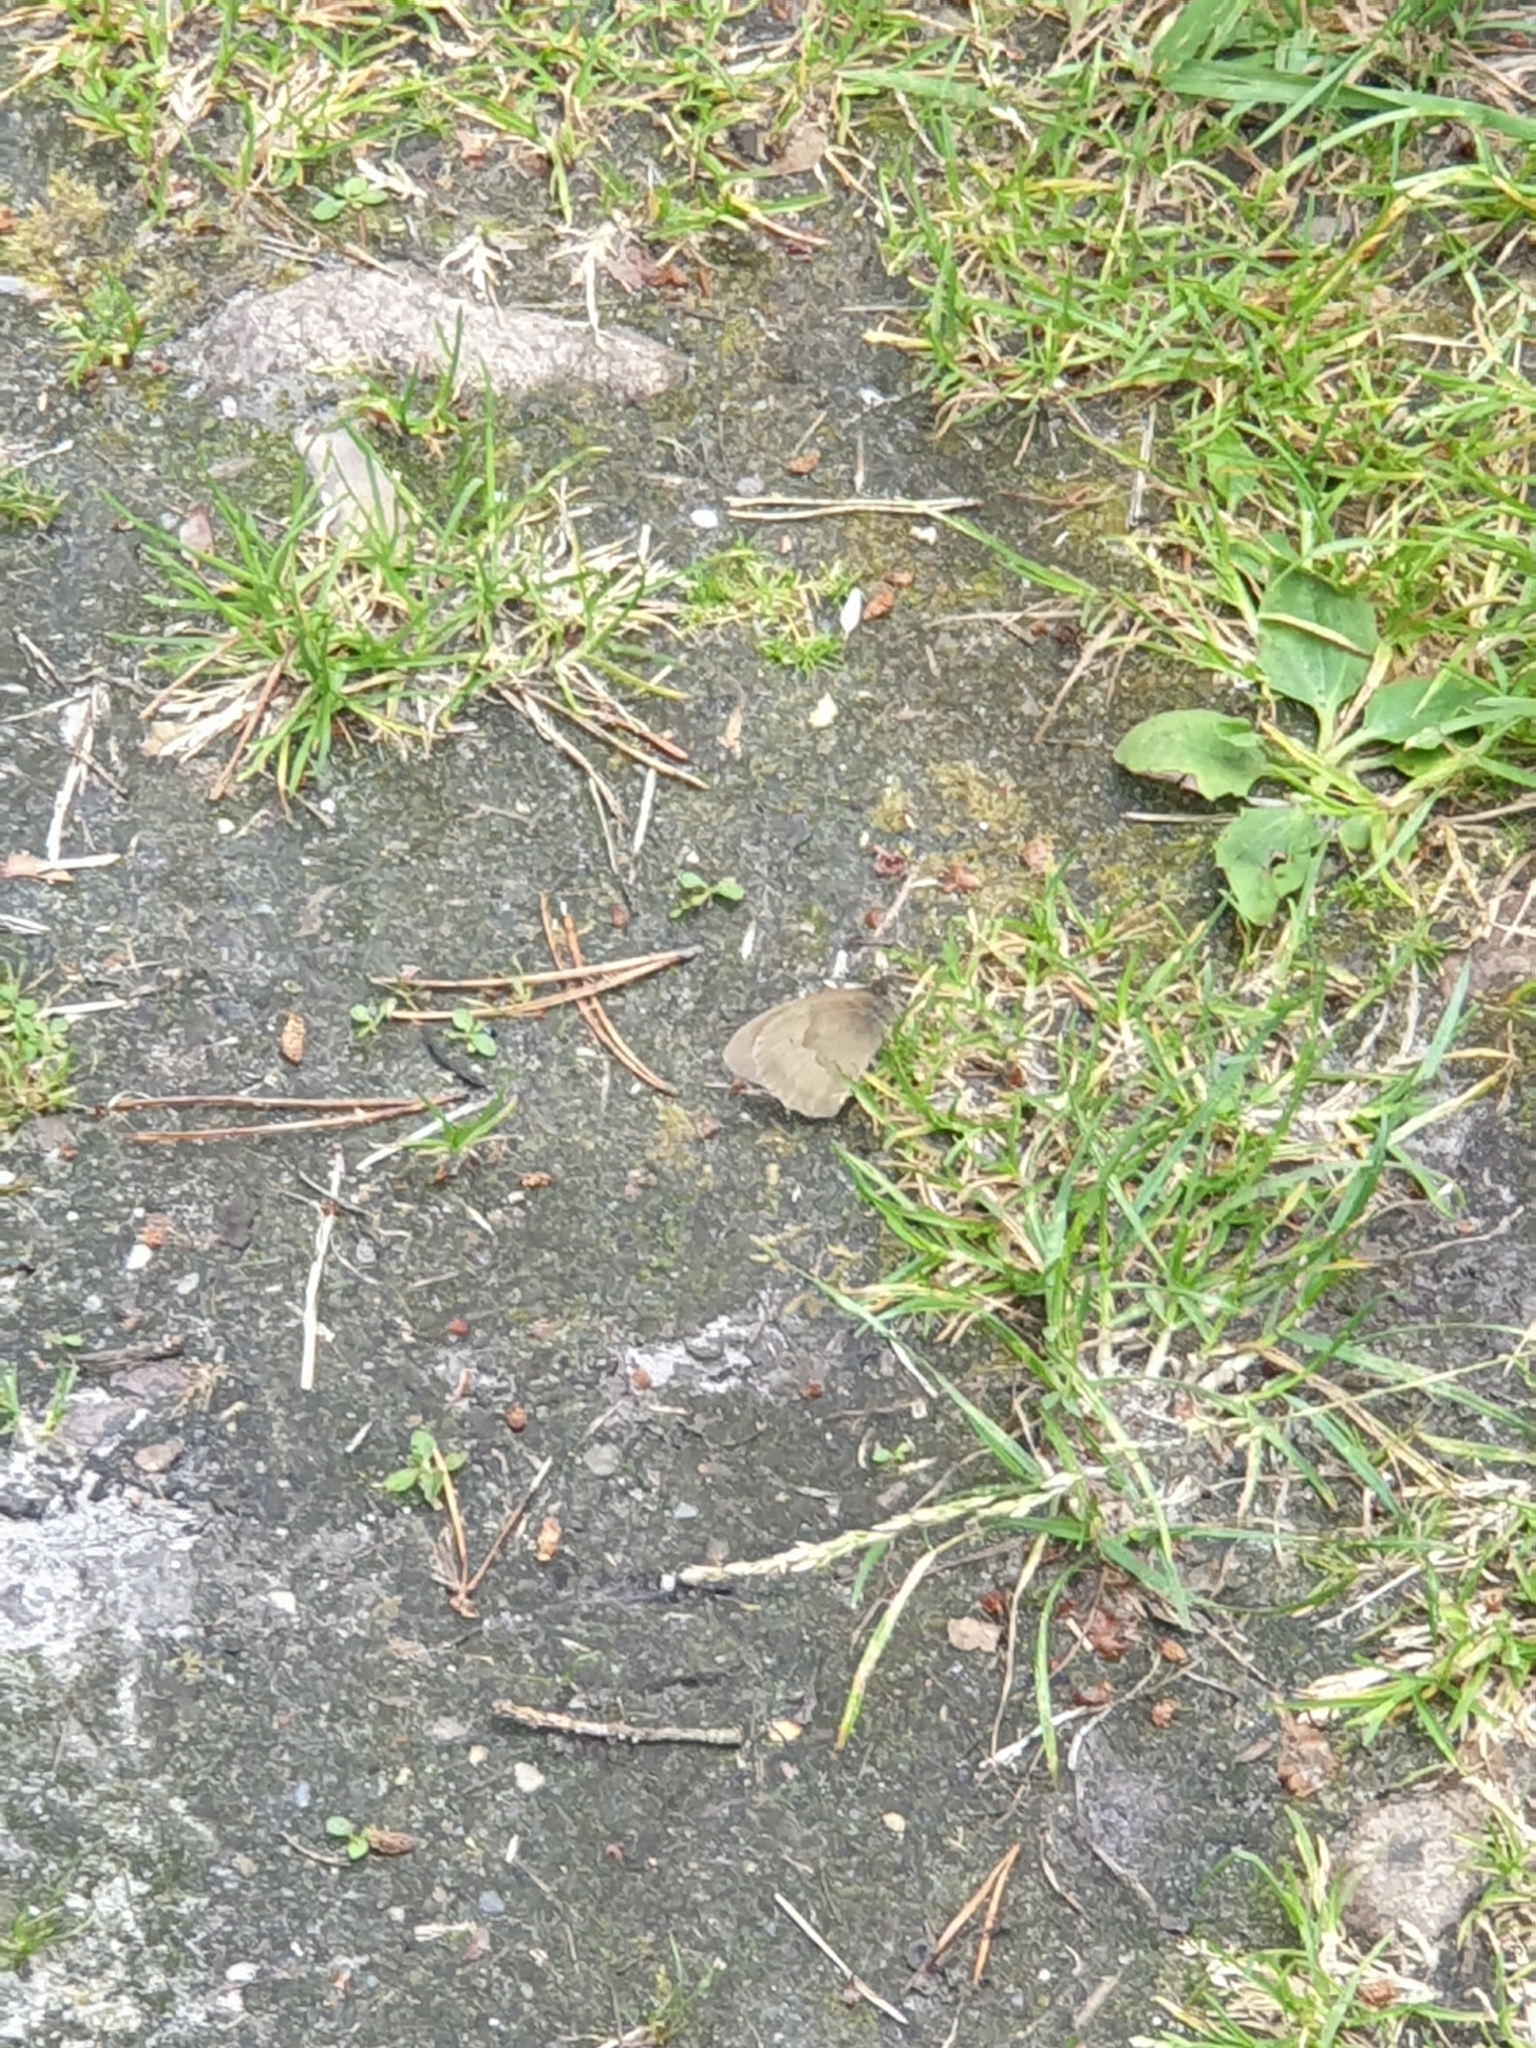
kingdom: Animalia
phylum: Arthropoda
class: Insecta
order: Lepidoptera
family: Nymphalidae
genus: Maniola
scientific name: Maniola jurtina
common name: Meadow brown
